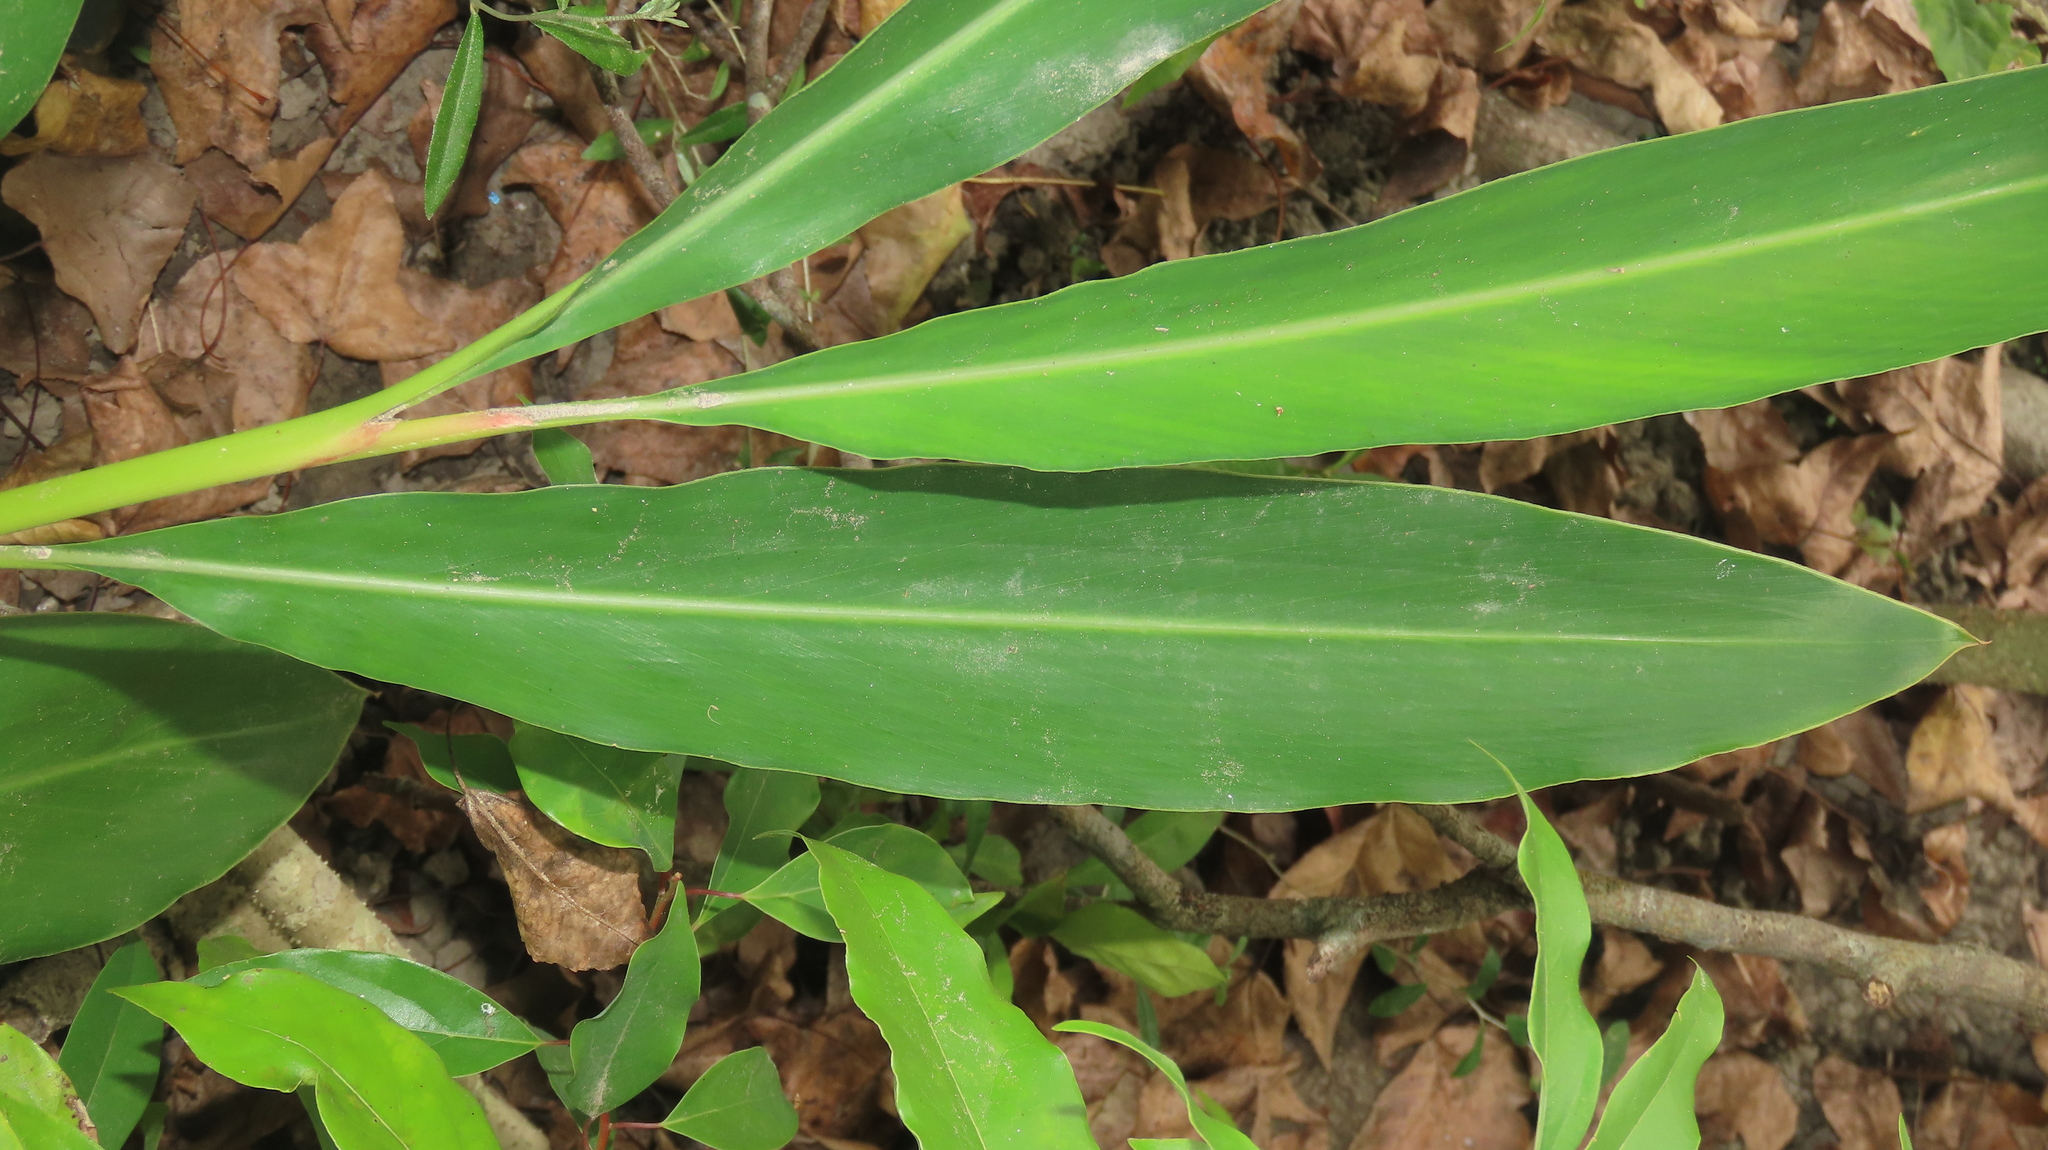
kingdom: Plantae
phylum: Tracheophyta
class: Liliopsida
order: Zingiberales
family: Zingiberaceae
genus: Alpinia
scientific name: Alpinia zerumbet
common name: Shellplant
